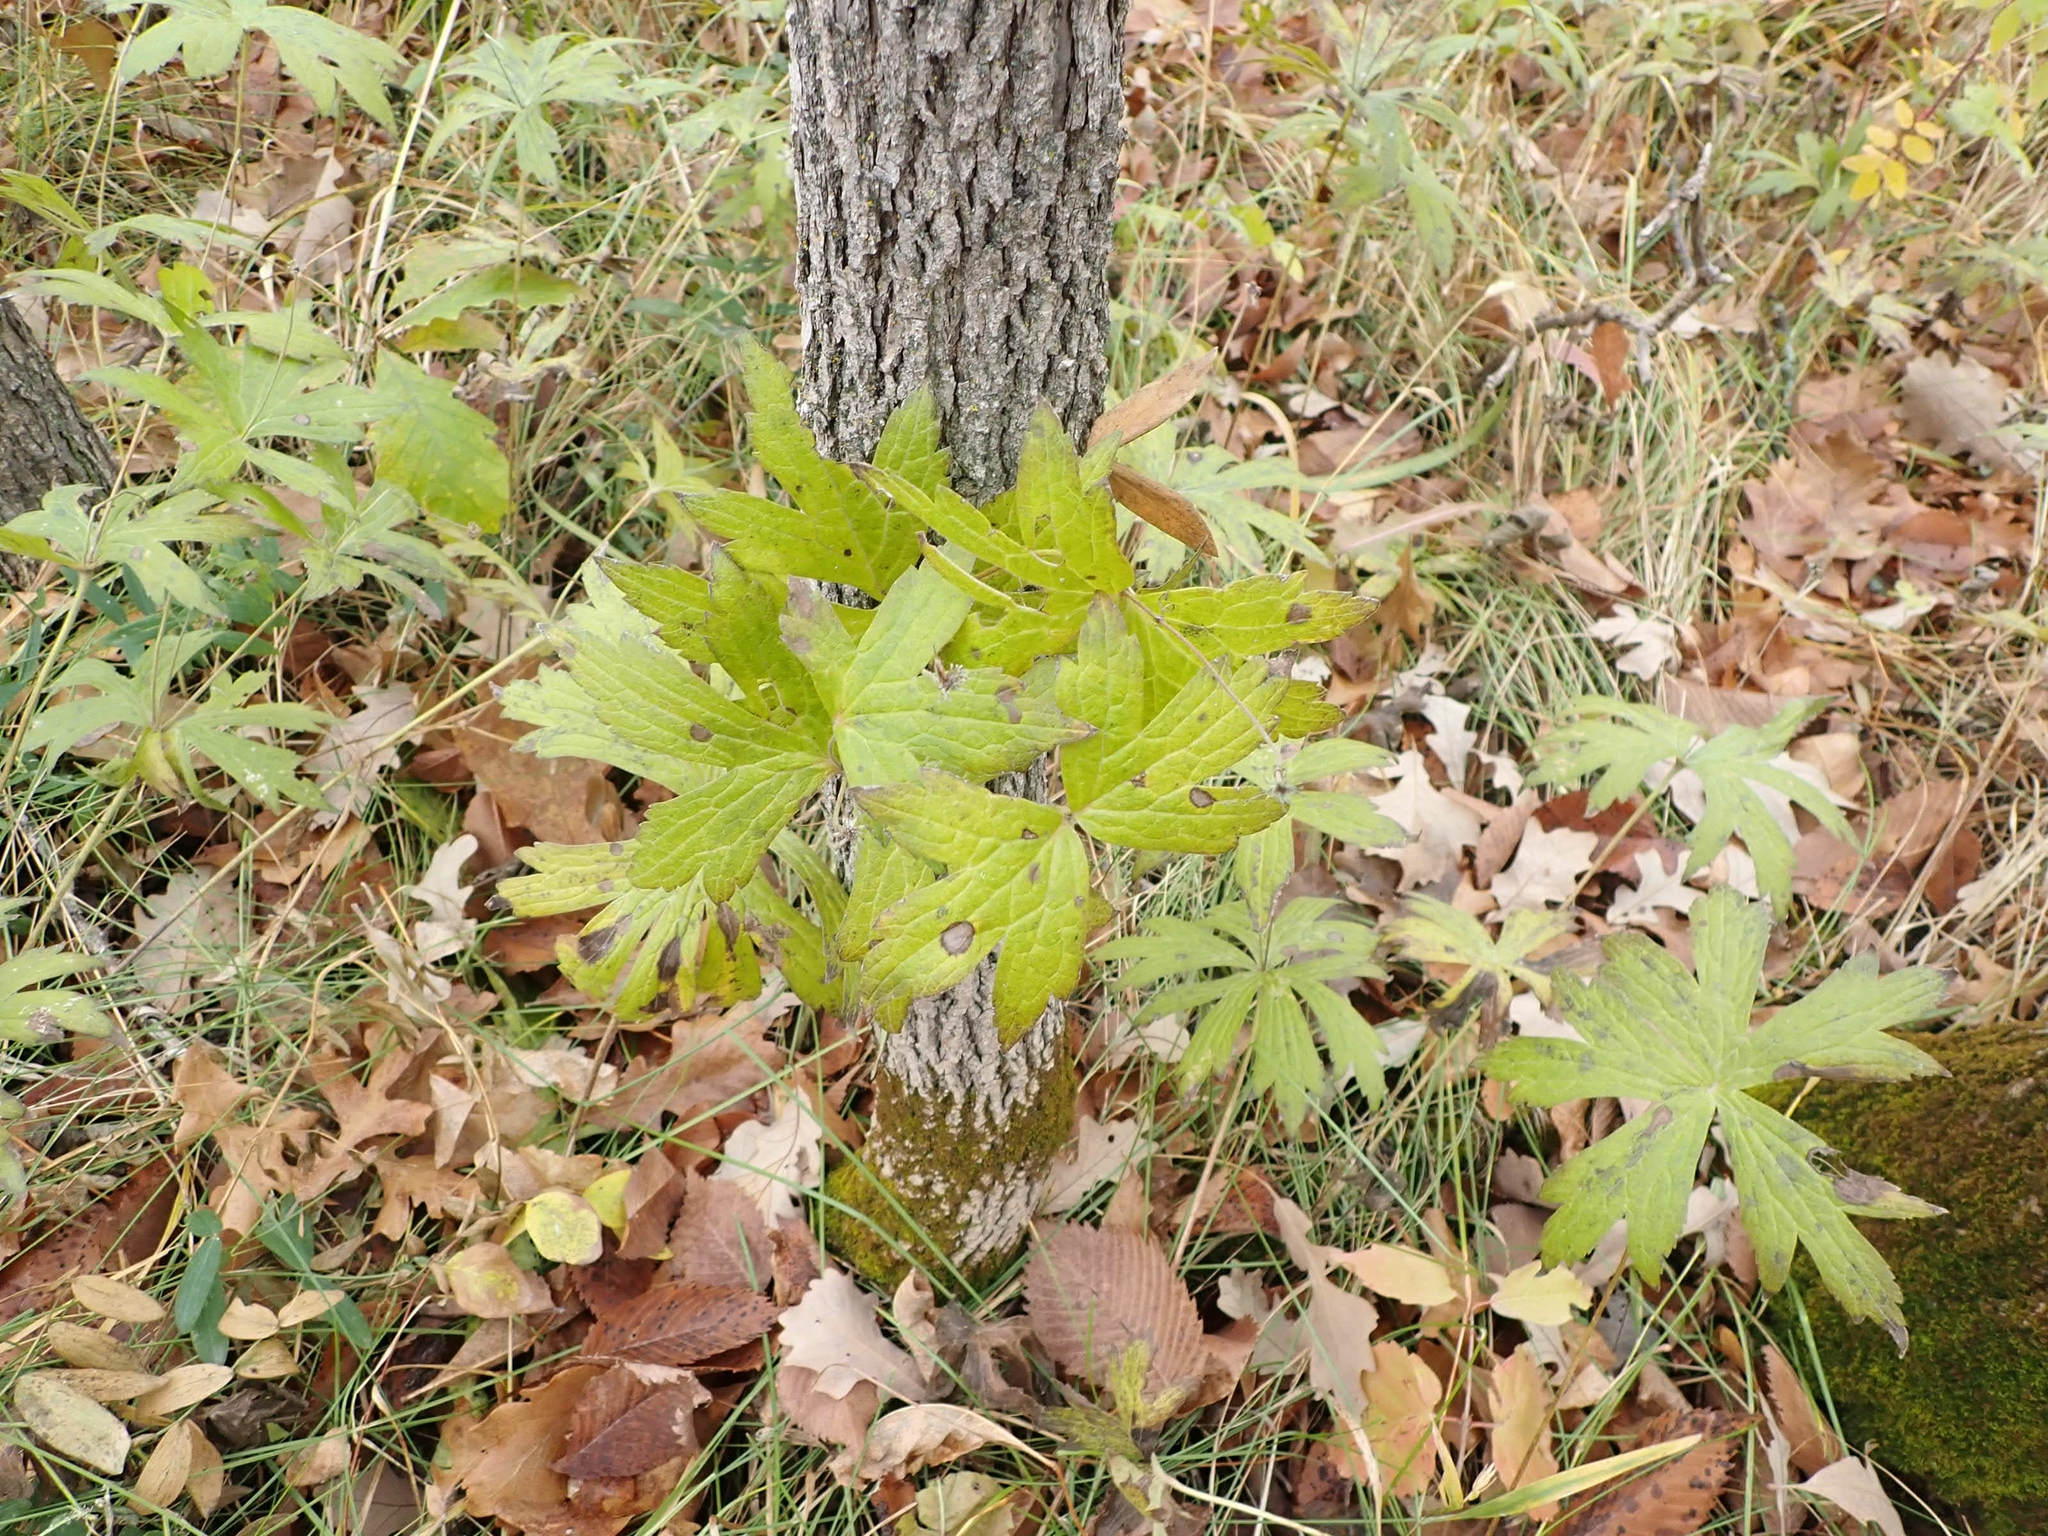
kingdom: Plantae
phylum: Tracheophyta
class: Magnoliopsida
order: Ranunculales
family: Ranunculaceae
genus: Anemonastrum
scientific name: Anemonastrum canadense
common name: Canada anemone
